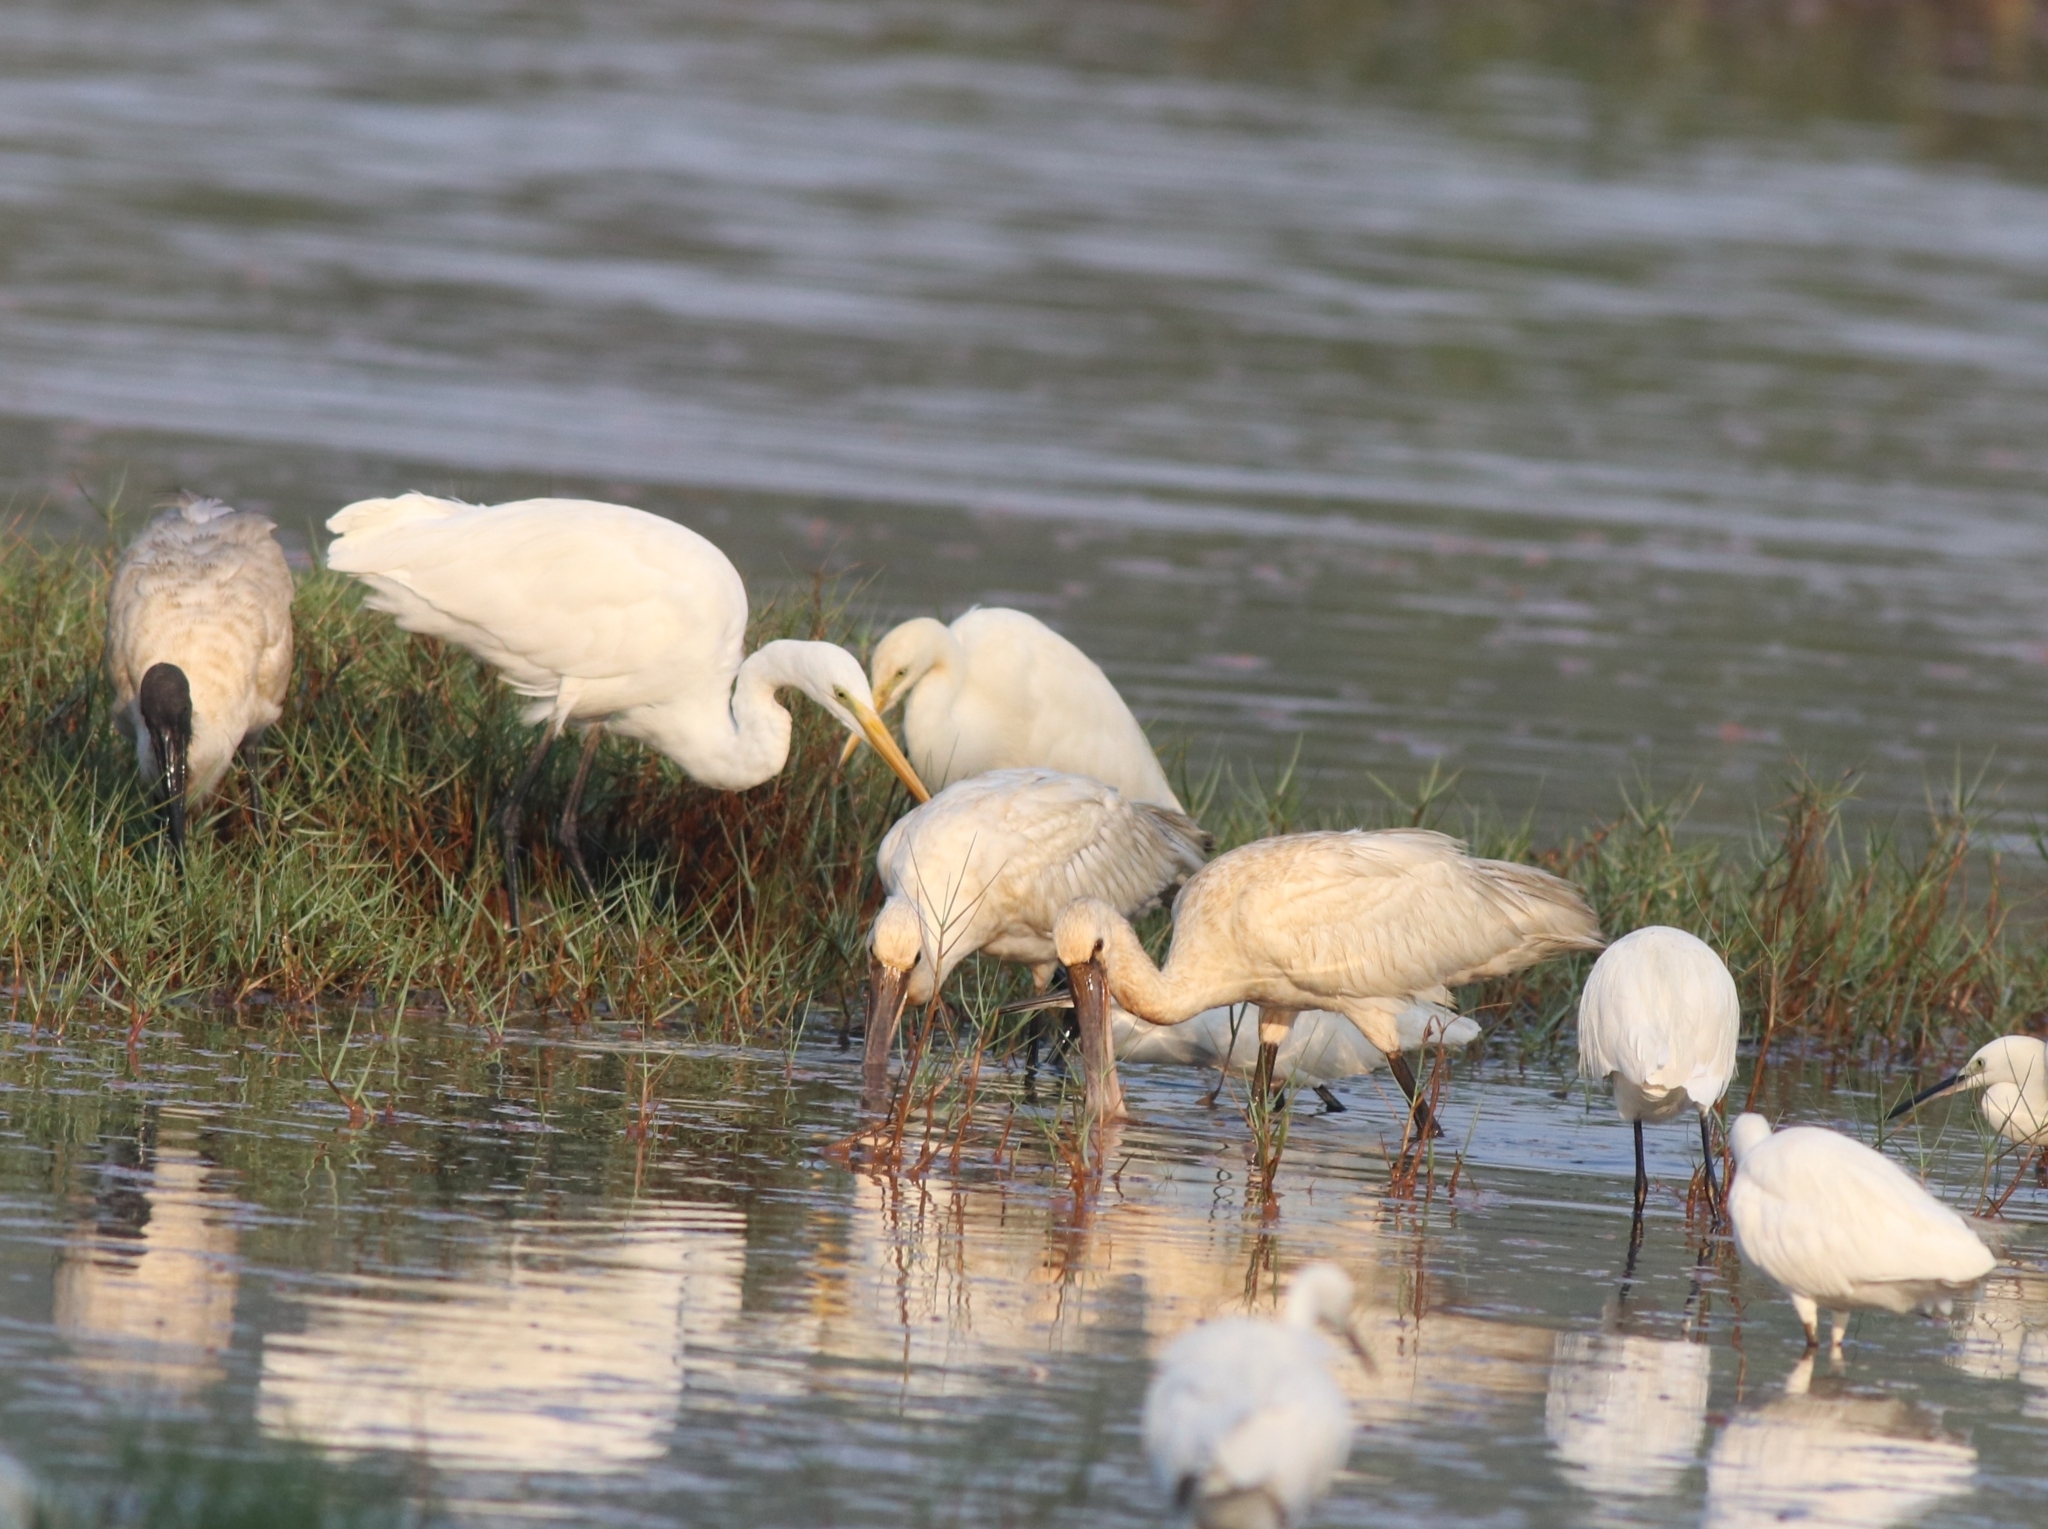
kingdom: Animalia
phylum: Chordata
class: Aves
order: Pelecaniformes
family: Ardeidae
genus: Ardea
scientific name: Ardea alba
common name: Great egret
